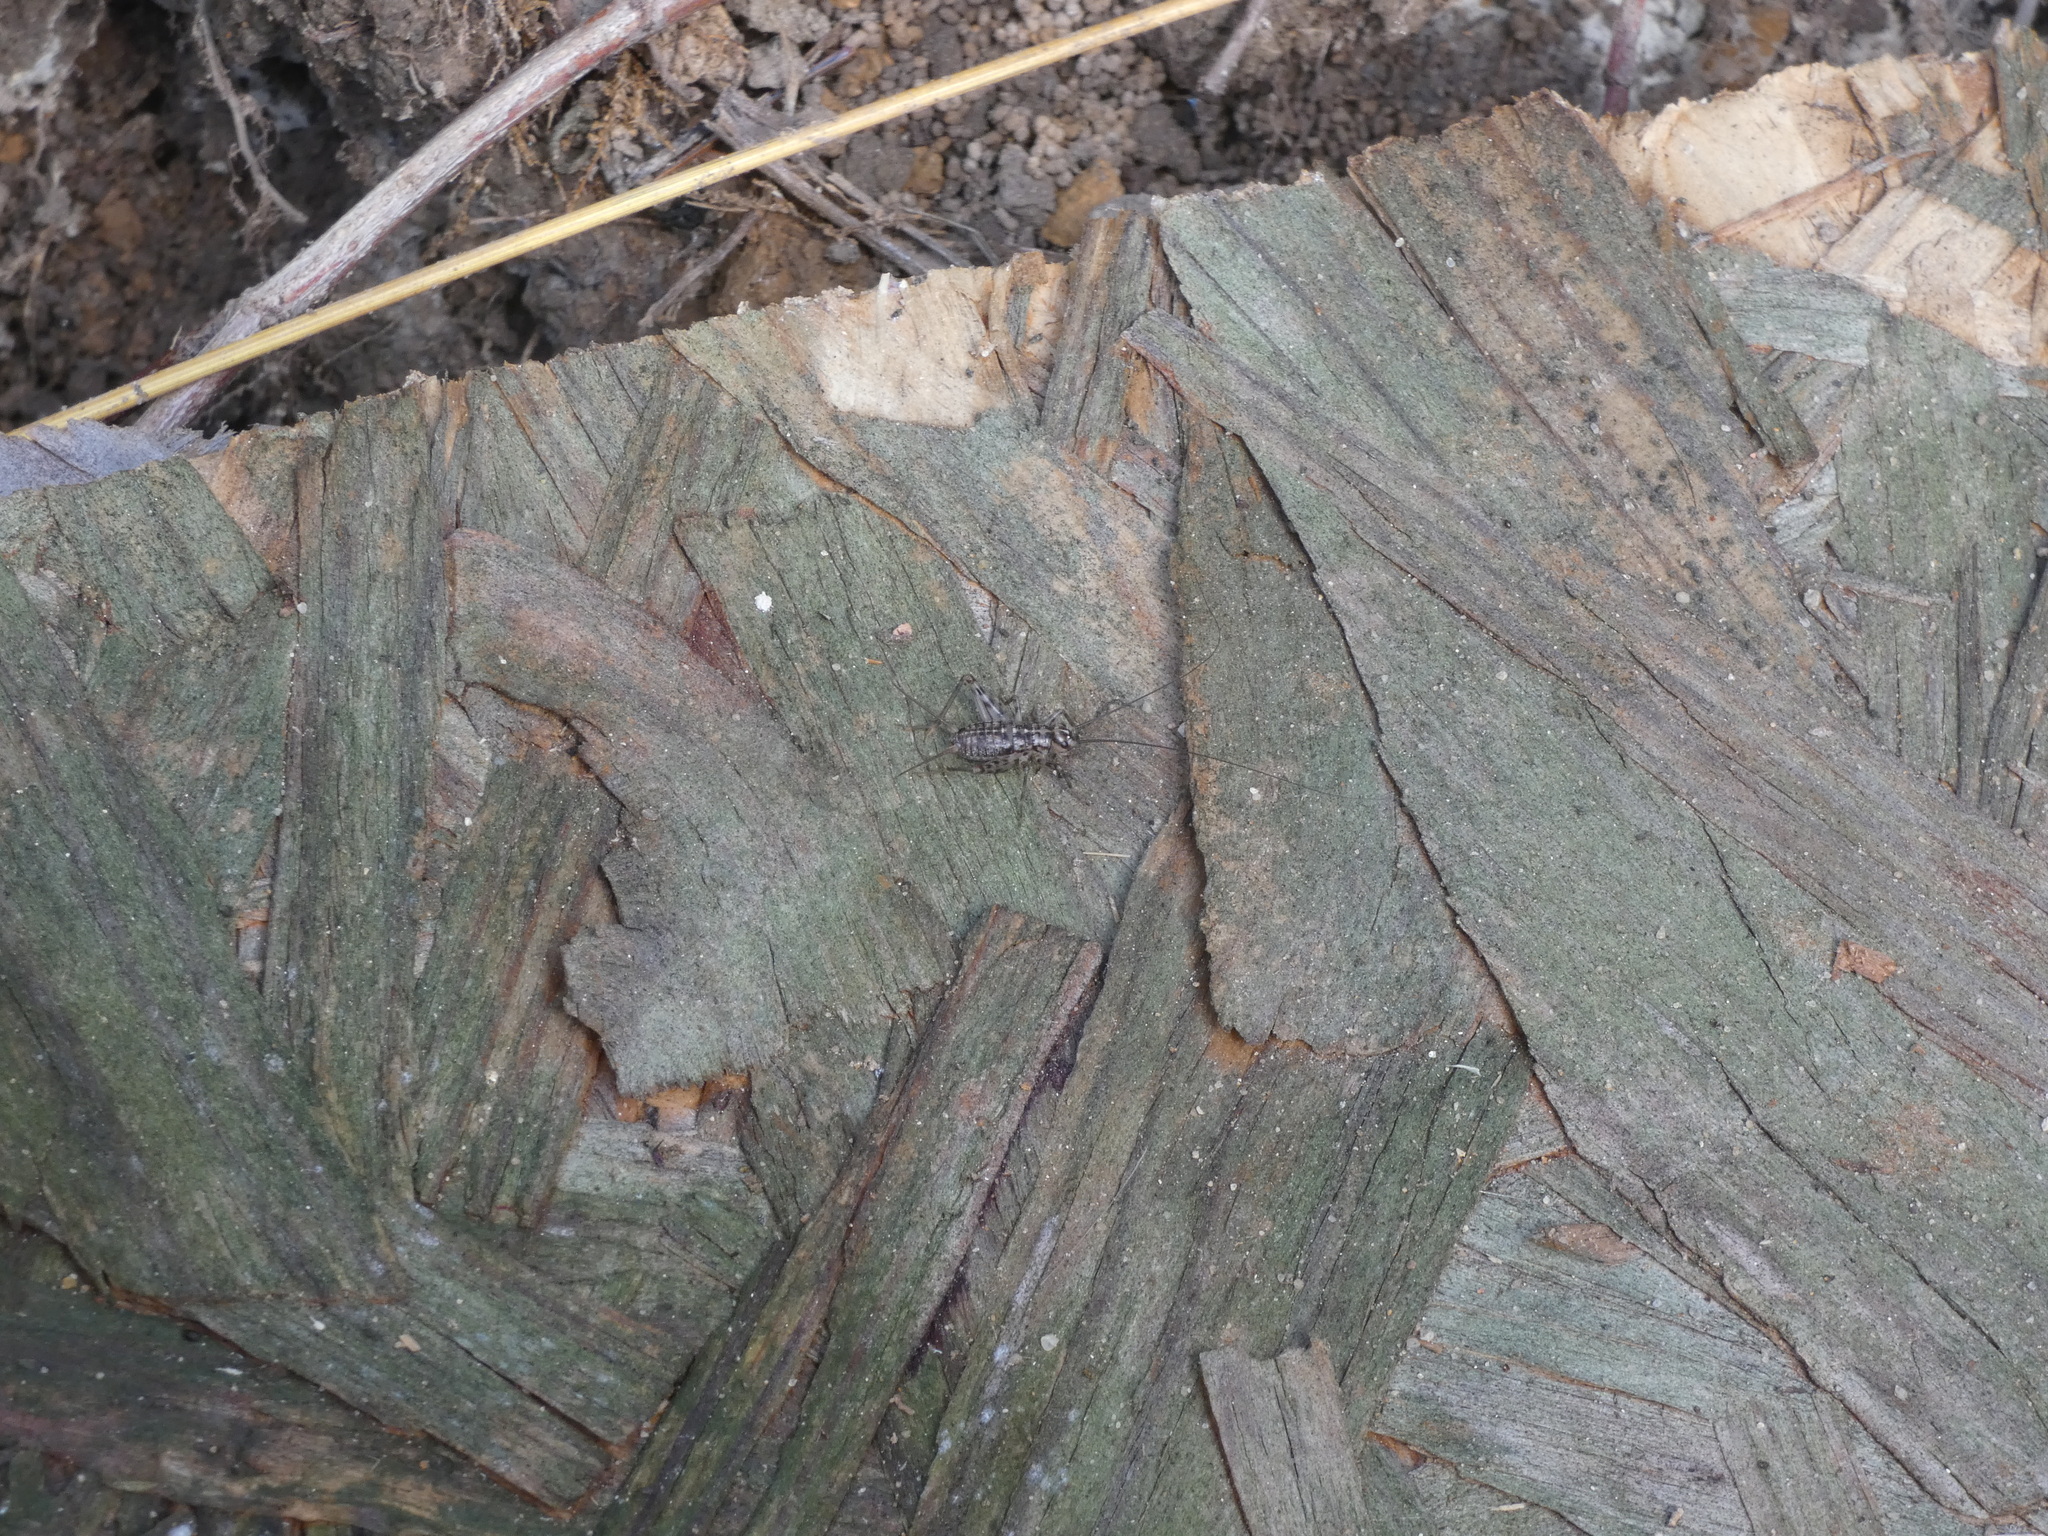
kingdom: Animalia
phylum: Arthropoda
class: Insecta
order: Orthoptera
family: Gryllidae
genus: Gryllomorpha
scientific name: Gryllomorpha dalmatina
